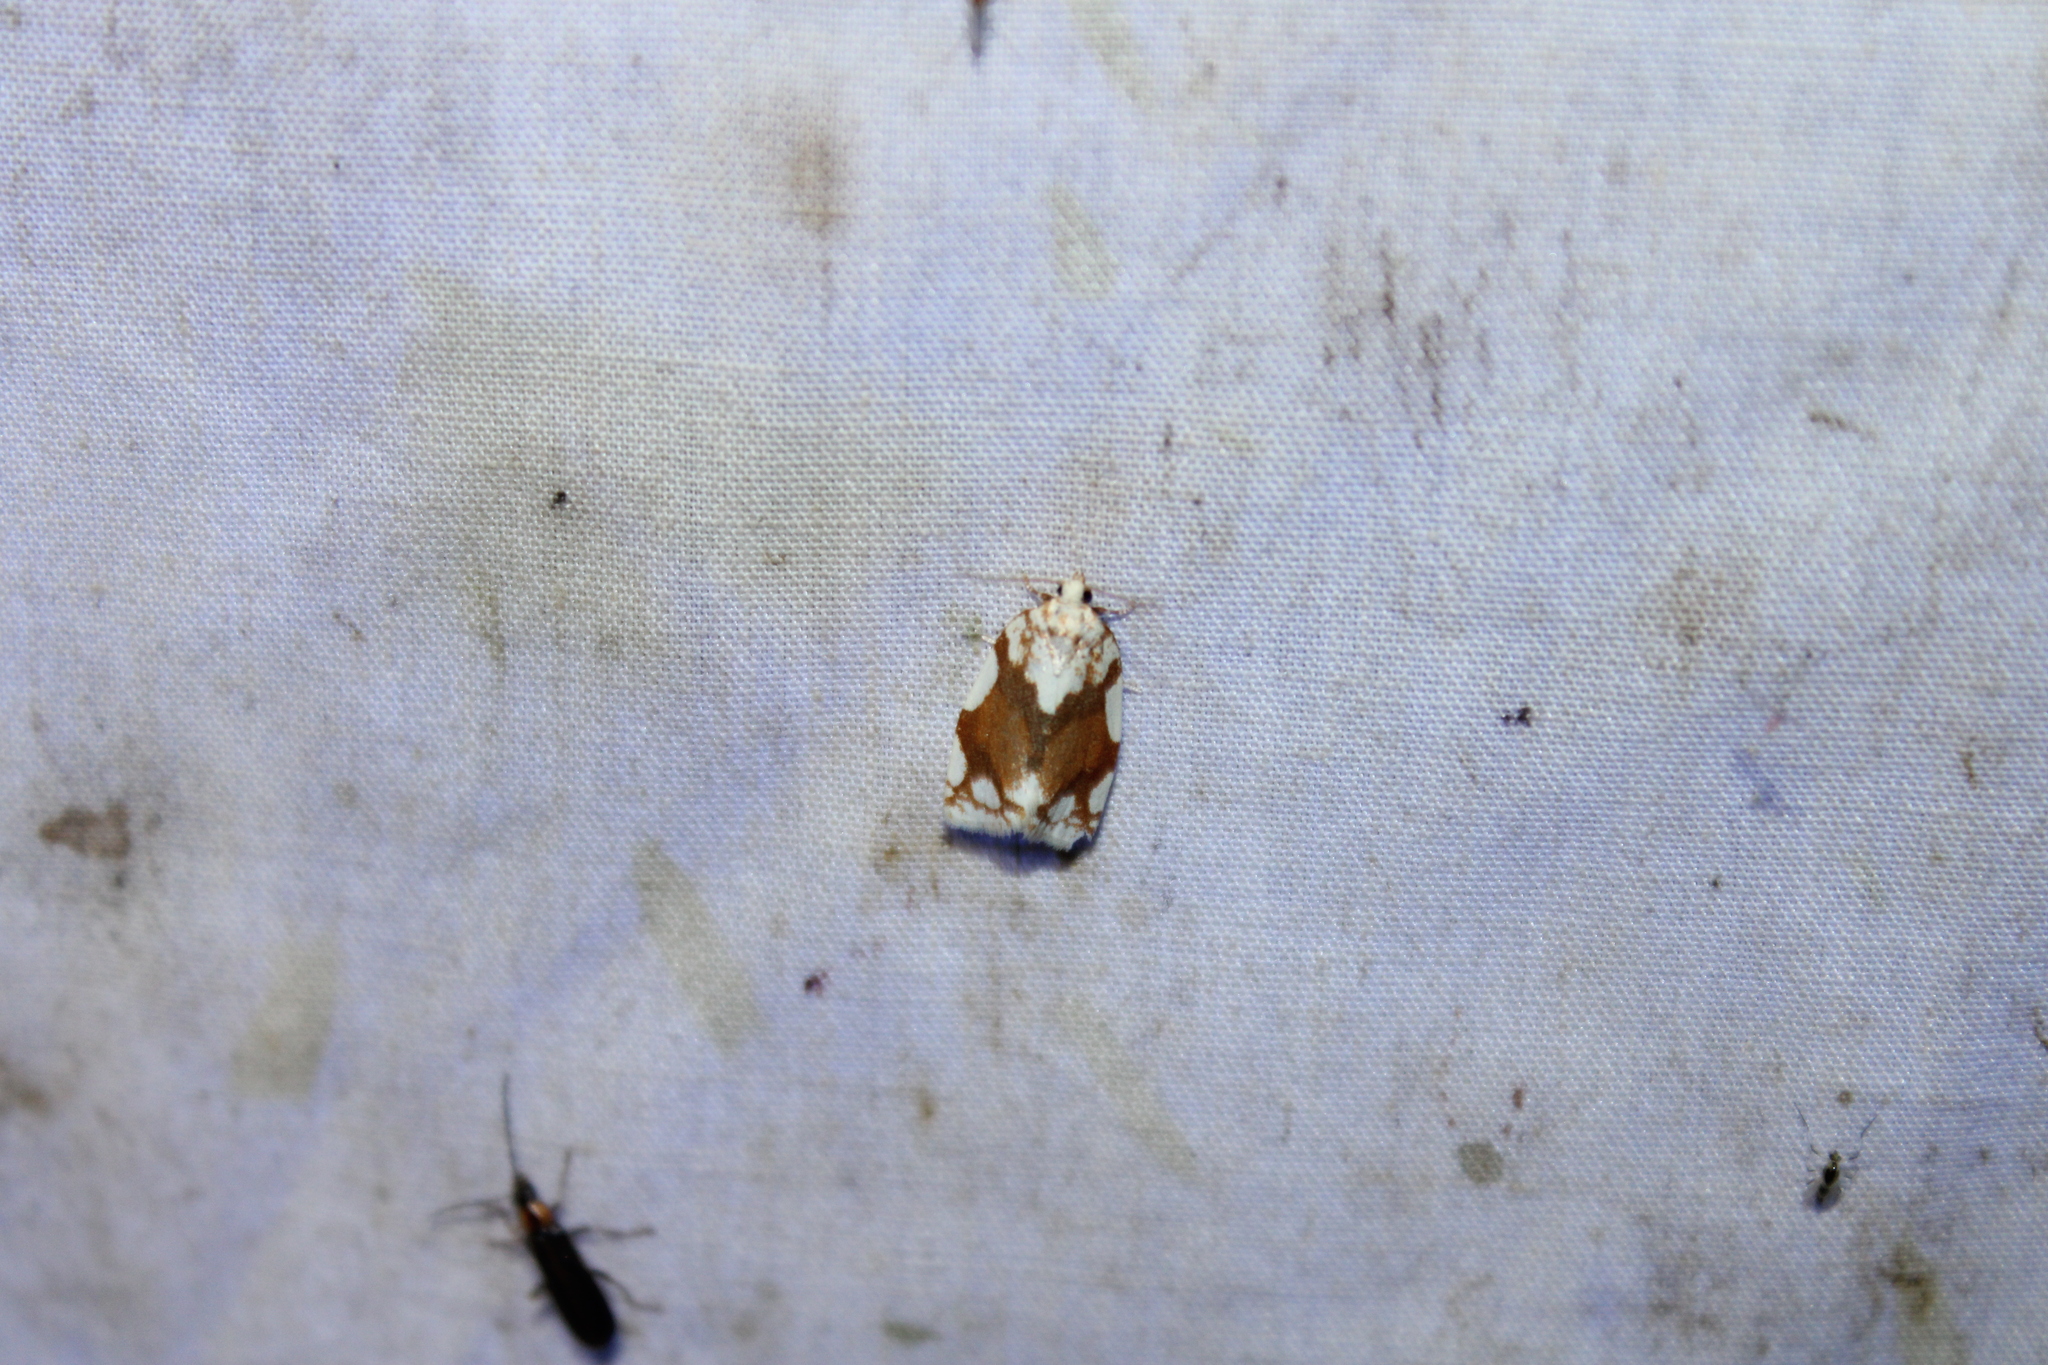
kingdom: Animalia
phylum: Arthropoda
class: Insecta
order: Lepidoptera
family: Tortricidae
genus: Argyrotaenia
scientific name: Argyrotaenia alisellana
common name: White-spotted leafroller moth
